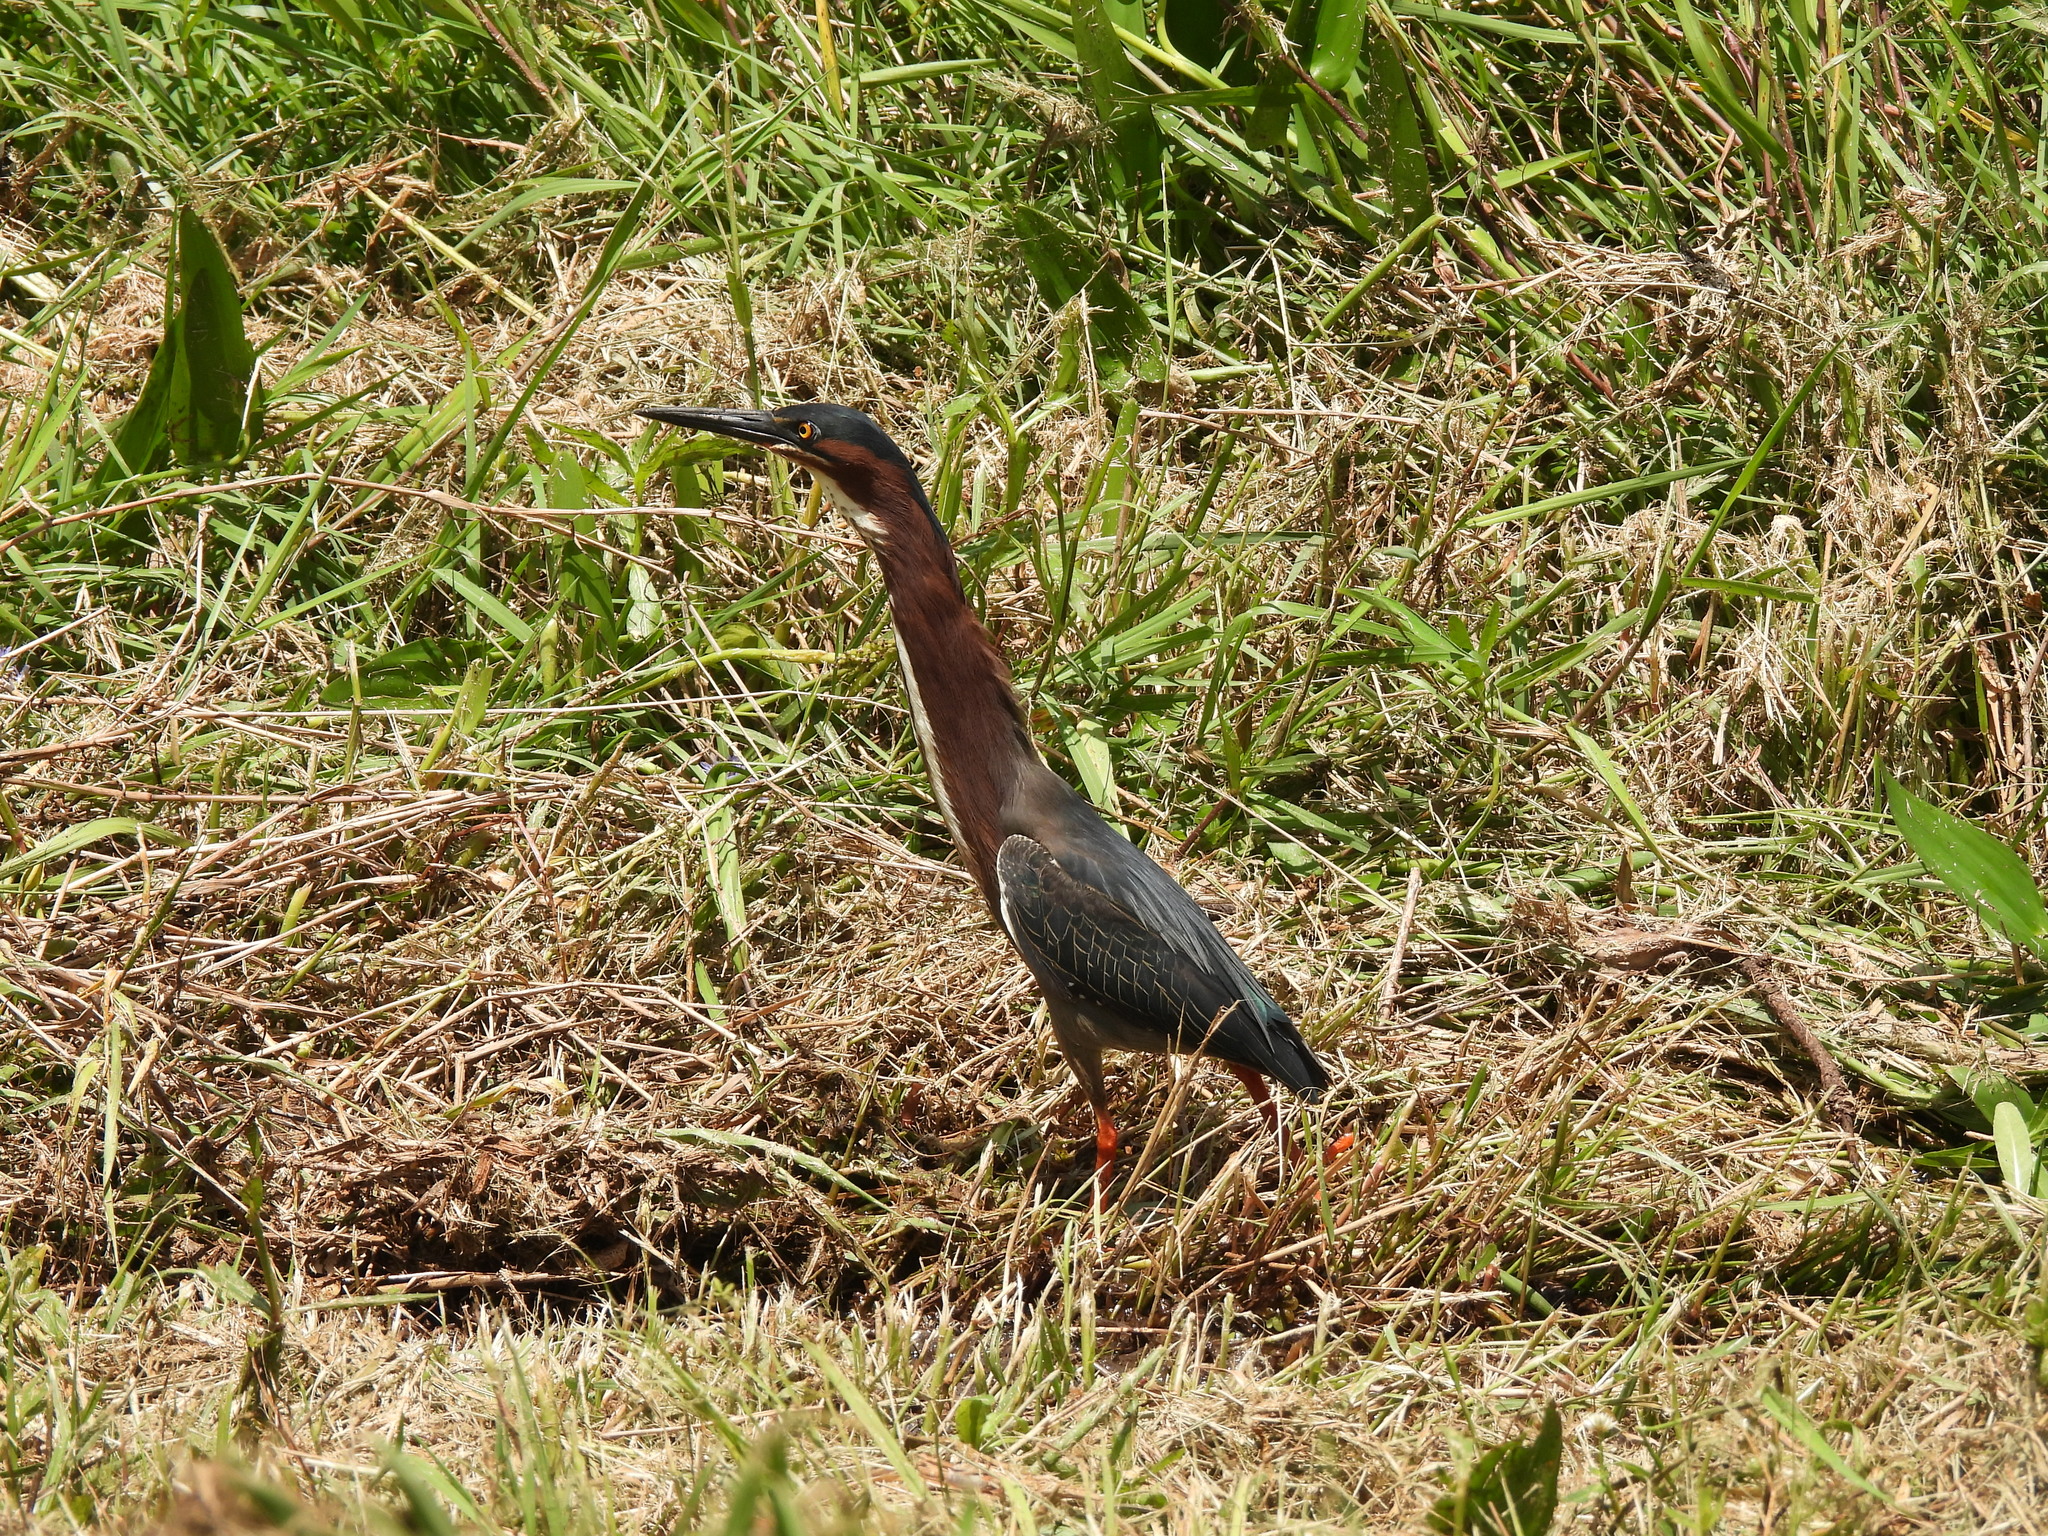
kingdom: Animalia
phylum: Chordata
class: Aves
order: Pelecaniformes
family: Ardeidae
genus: Butorides
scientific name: Butorides virescens
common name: Green heron
